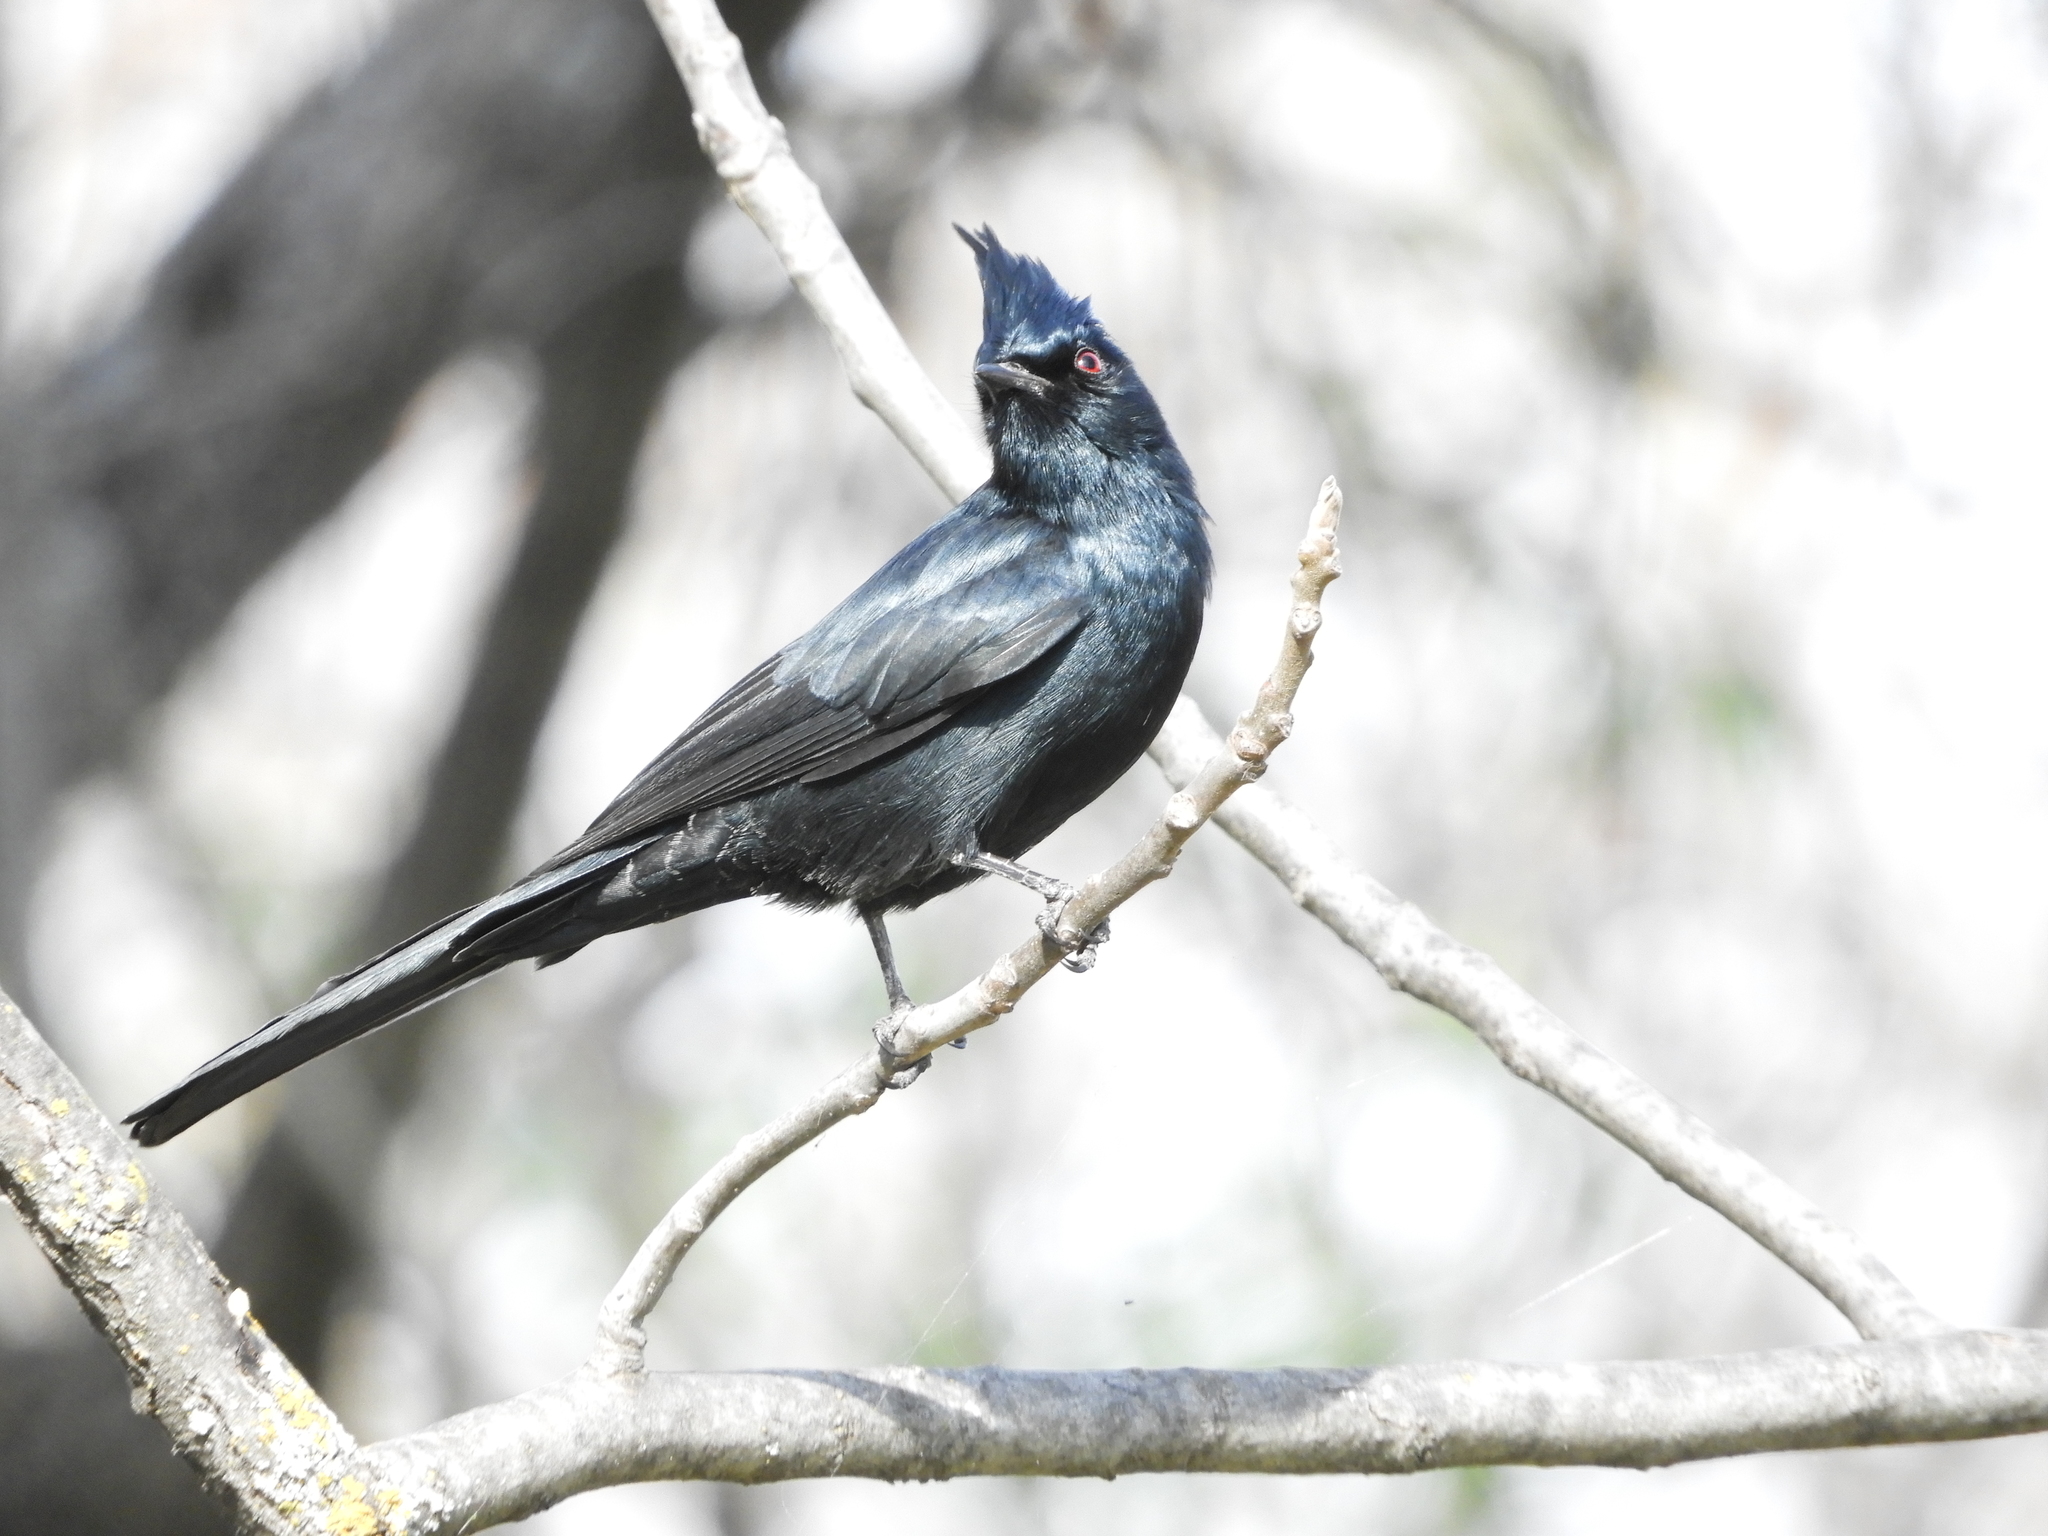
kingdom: Animalia
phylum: Chordata
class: Aves
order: Passeriformes
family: Ptilogonatidae
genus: Phainopepla
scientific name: Phainopepla nitens
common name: Phainopepla
